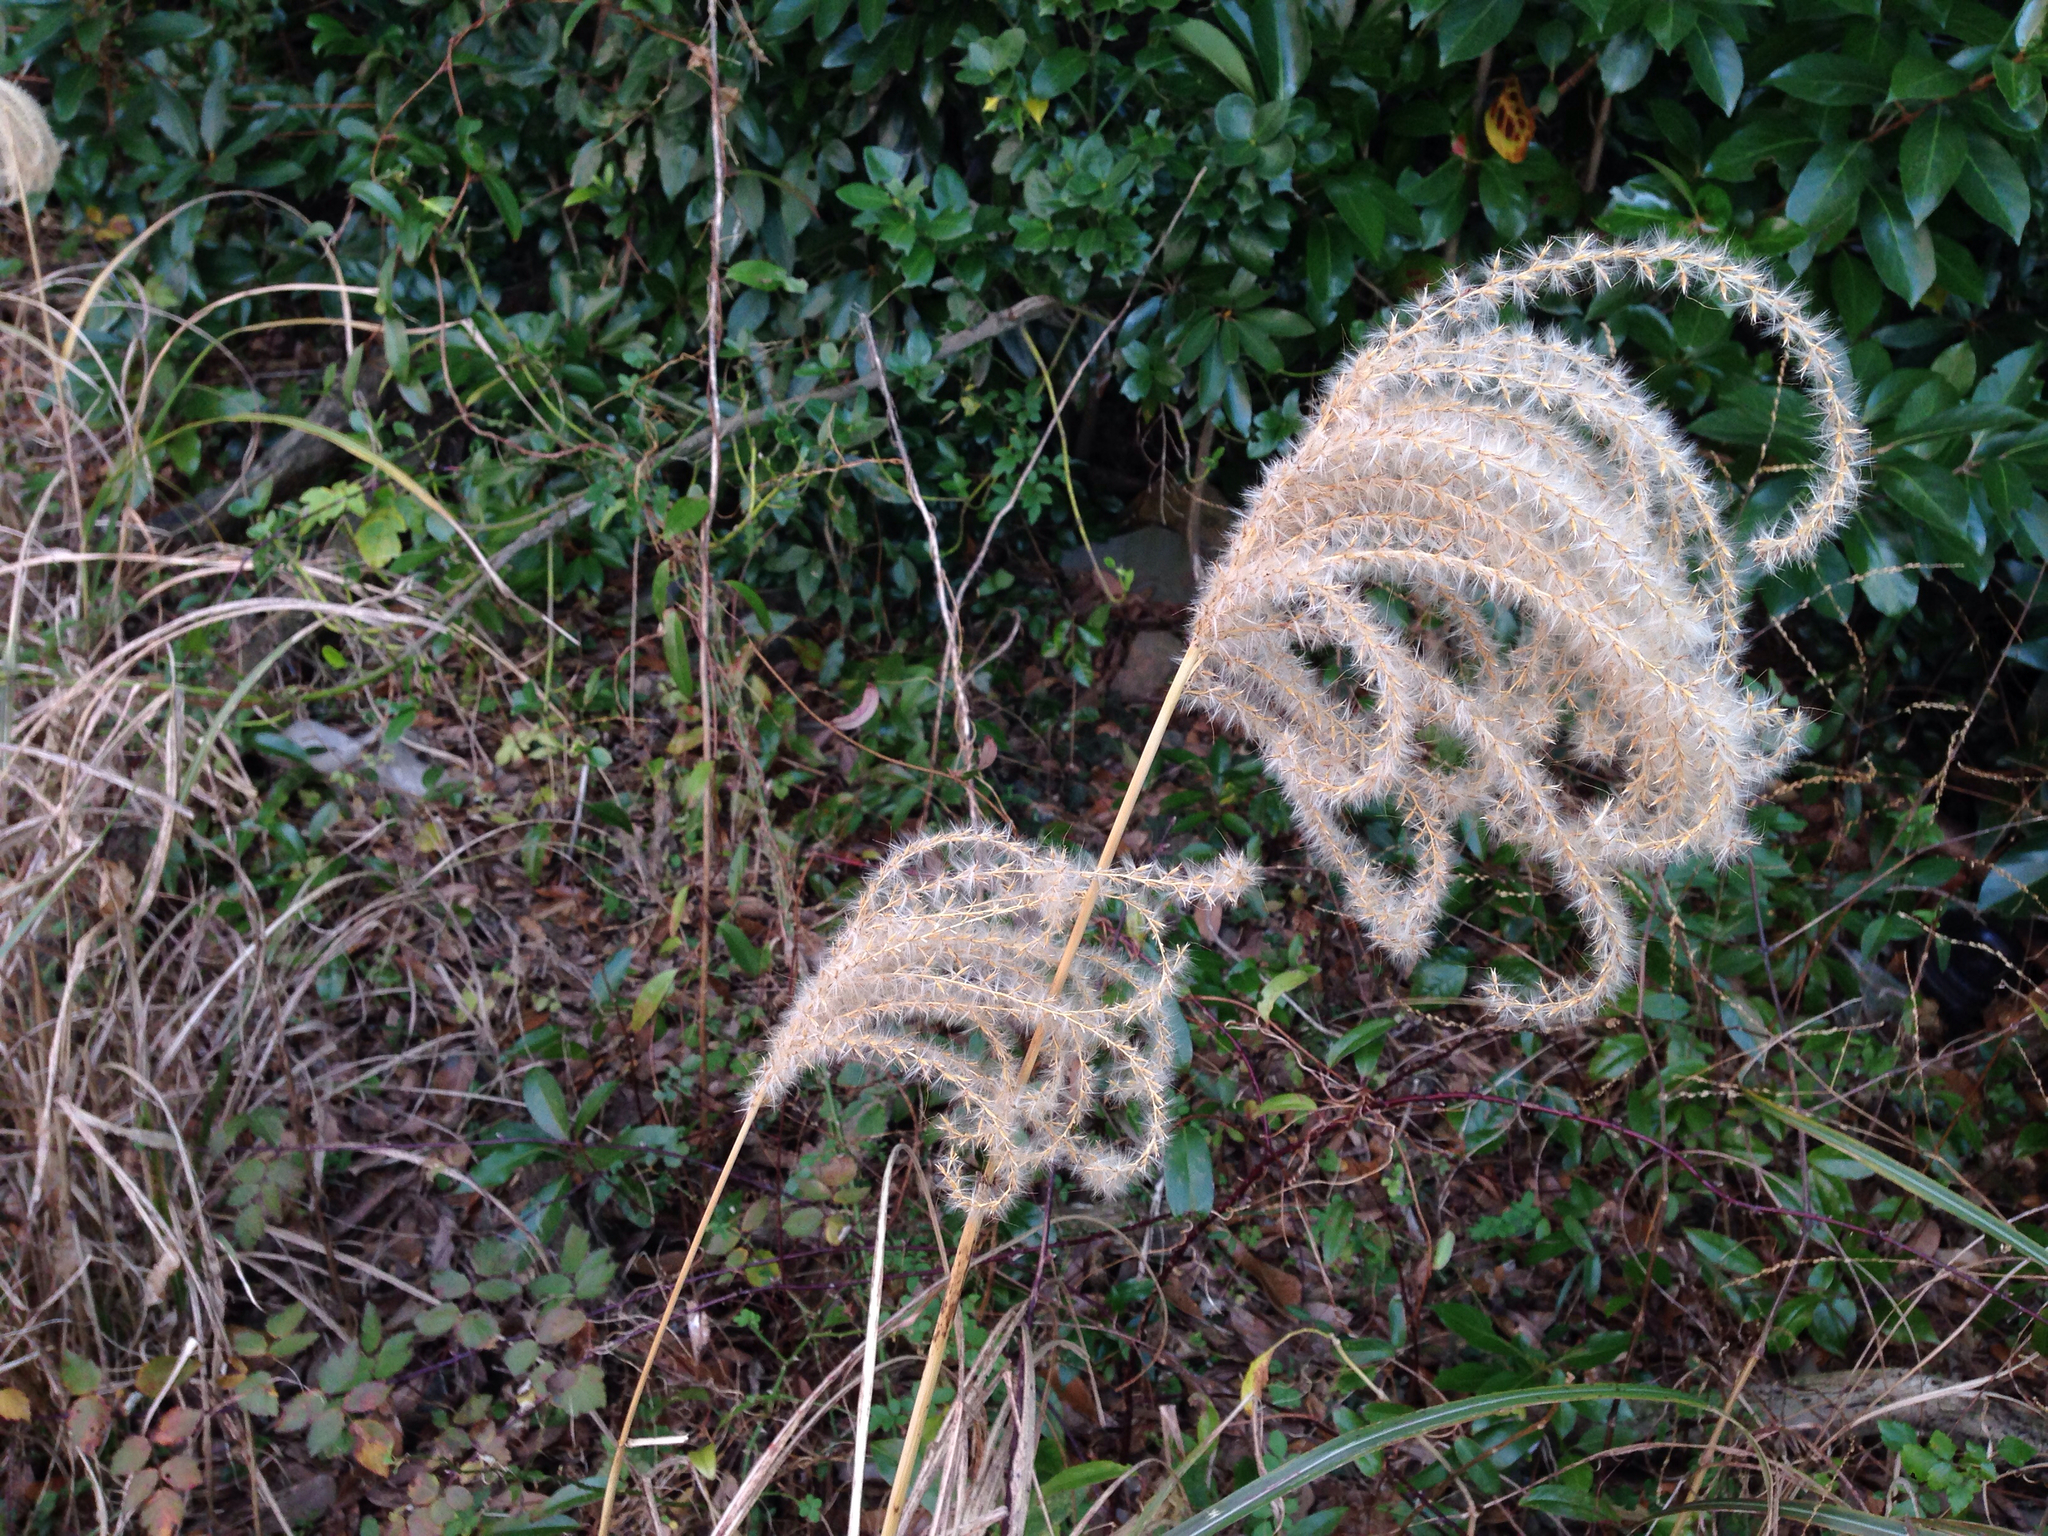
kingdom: Plantae
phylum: Tracheophyta
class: Liliopsida
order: Poales
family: Poaceae
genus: Miscanthus
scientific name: Miscanthus sinensis
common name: Chinese silvergrass
